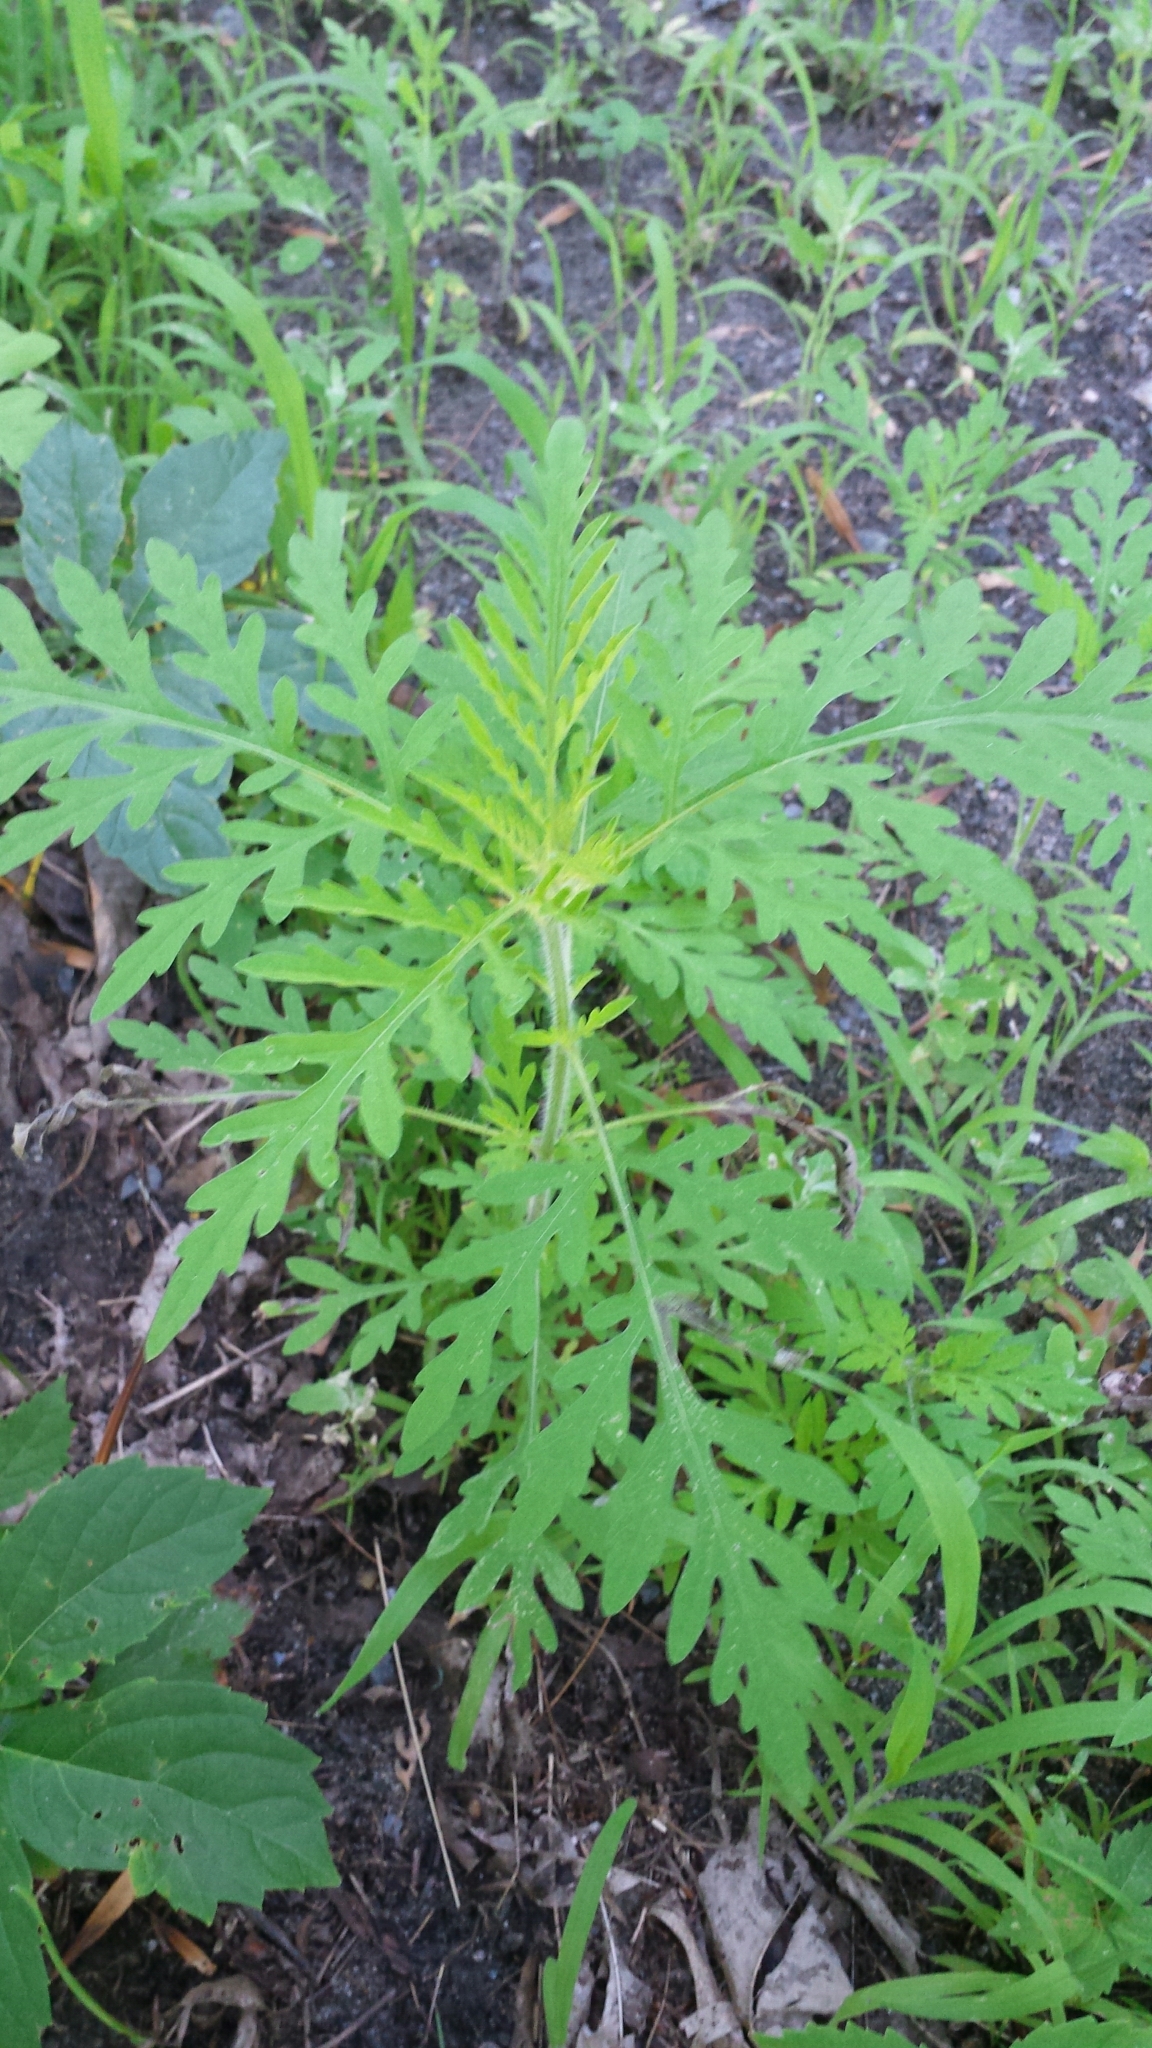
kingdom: Plantae
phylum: Tracheophyta
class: Magnoliopsida
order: Asterales
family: Asteraceae
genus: Ambrosia
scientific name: Ambrosia artemisiifolia
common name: Annual ragweed
